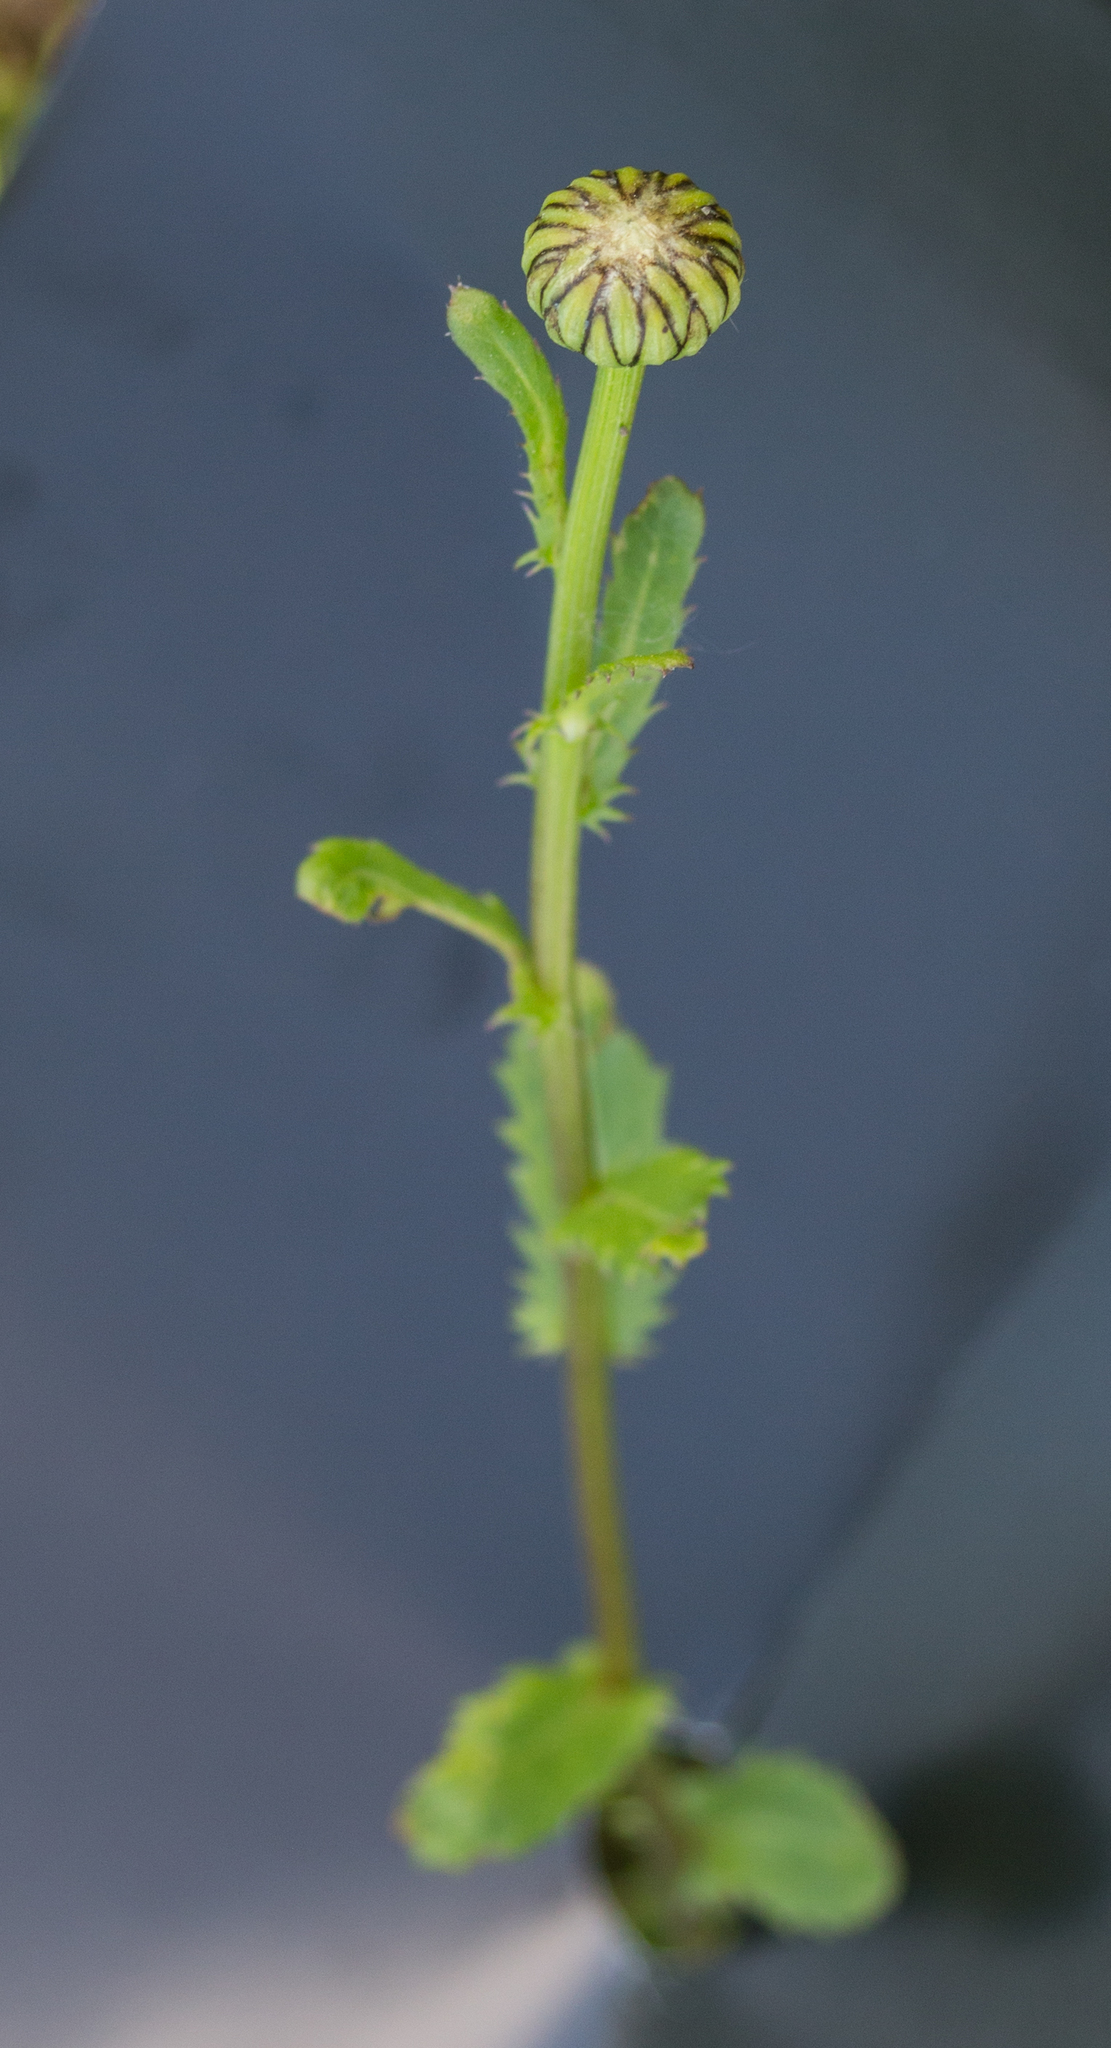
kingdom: Plantae
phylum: Tracheophyta
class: Magnoliopsida
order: Asterales
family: Asteraceae
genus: Leucanthemum
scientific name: Leucanthemum vulgare
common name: Oxeye daisy
